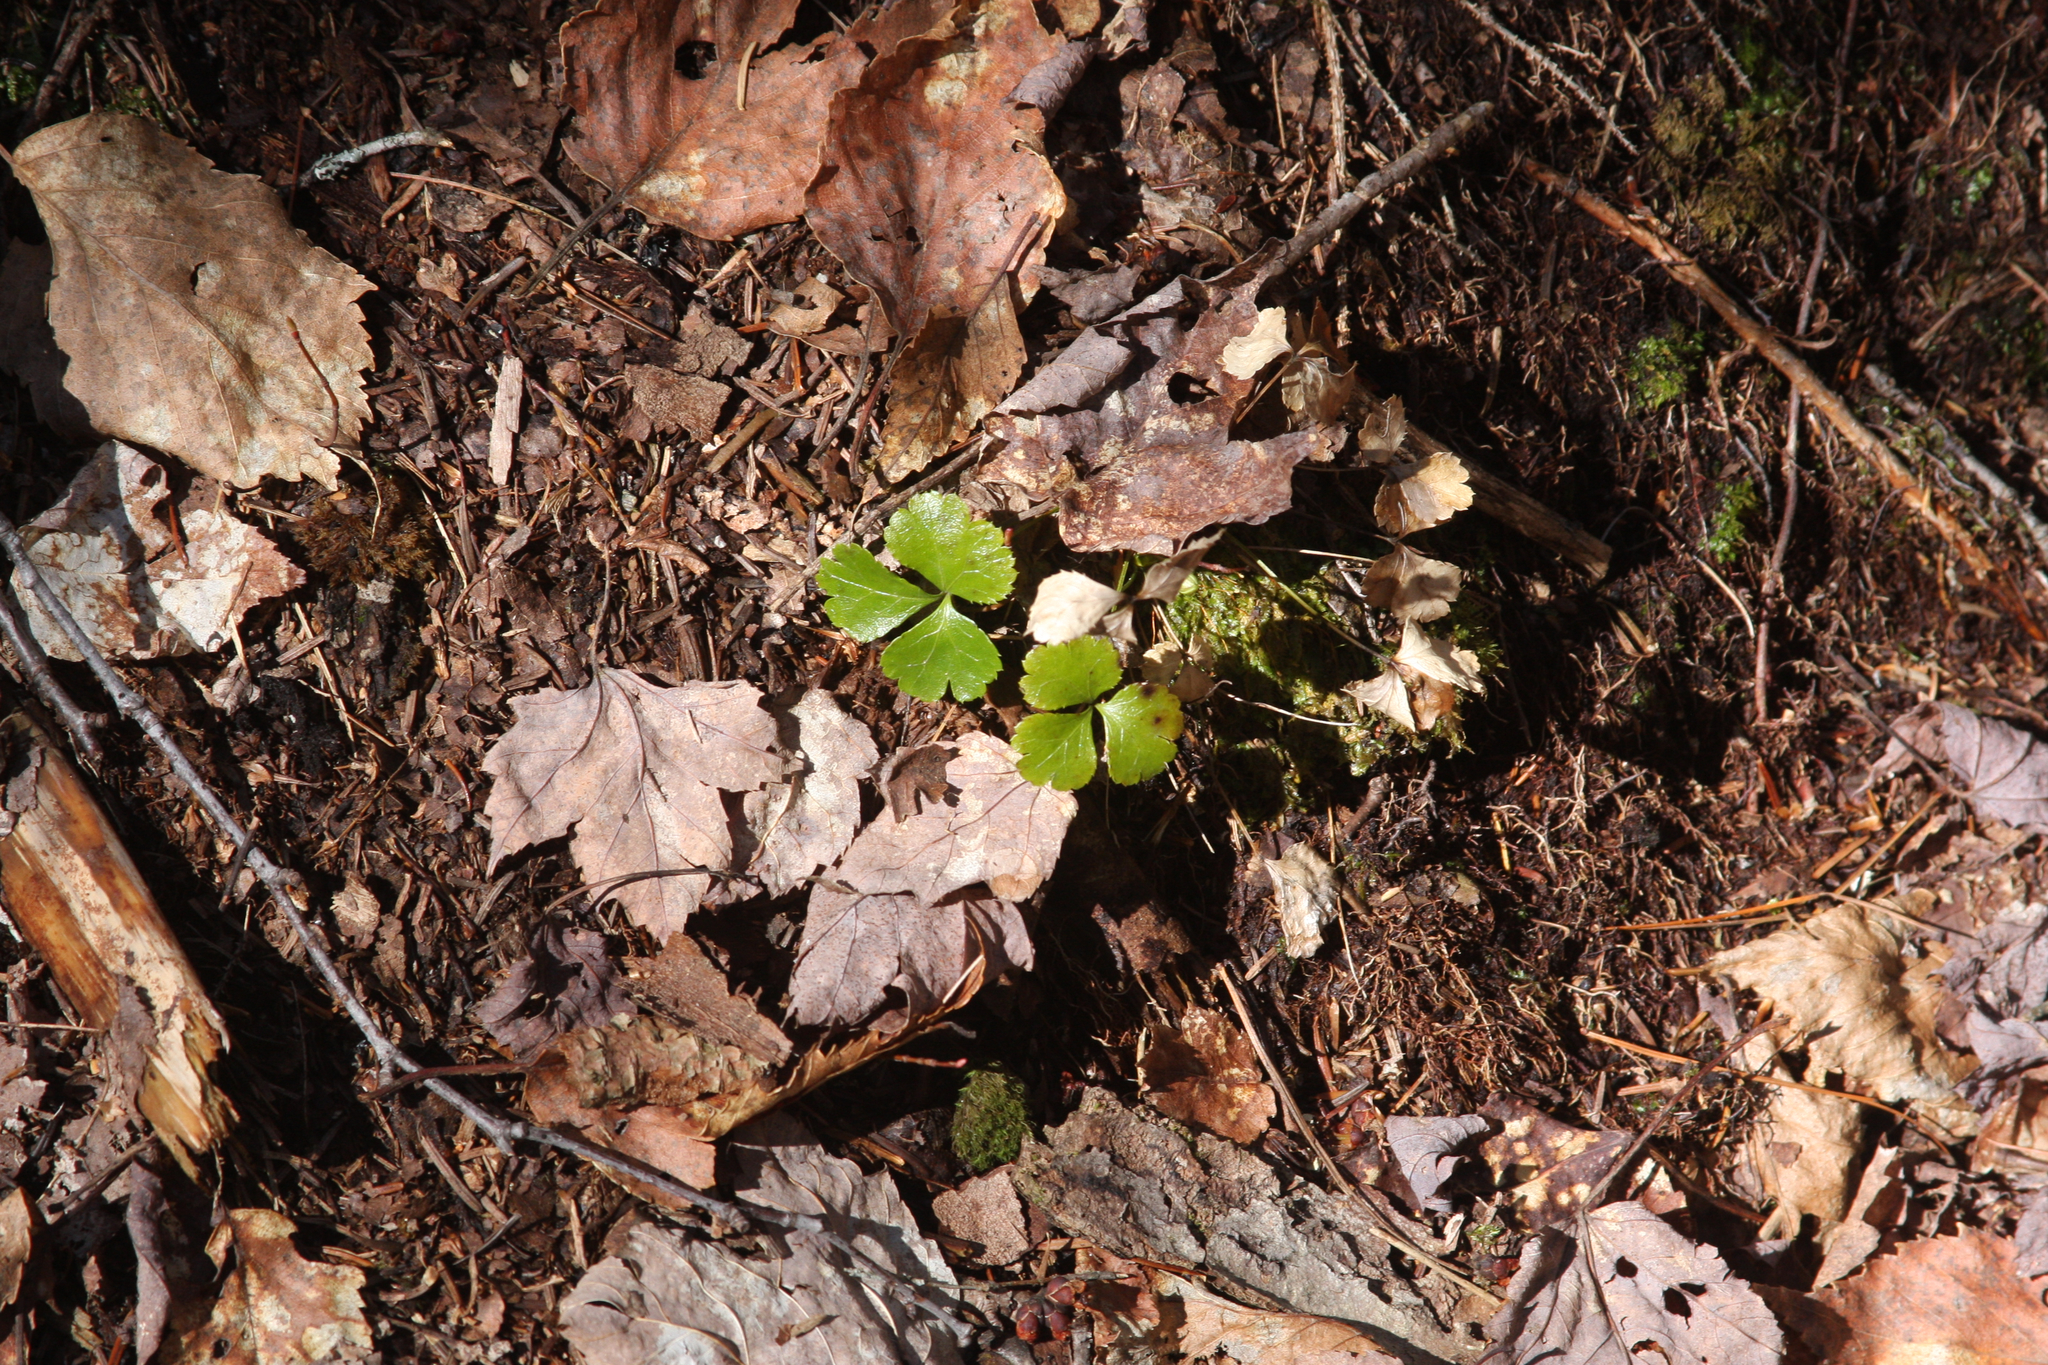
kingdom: Plantae
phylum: Tracheophyta
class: Magnoliopsida
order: Ranunculales
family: Ranunculaceae
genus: Coptis
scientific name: Coptis trifolia
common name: Canker-root
